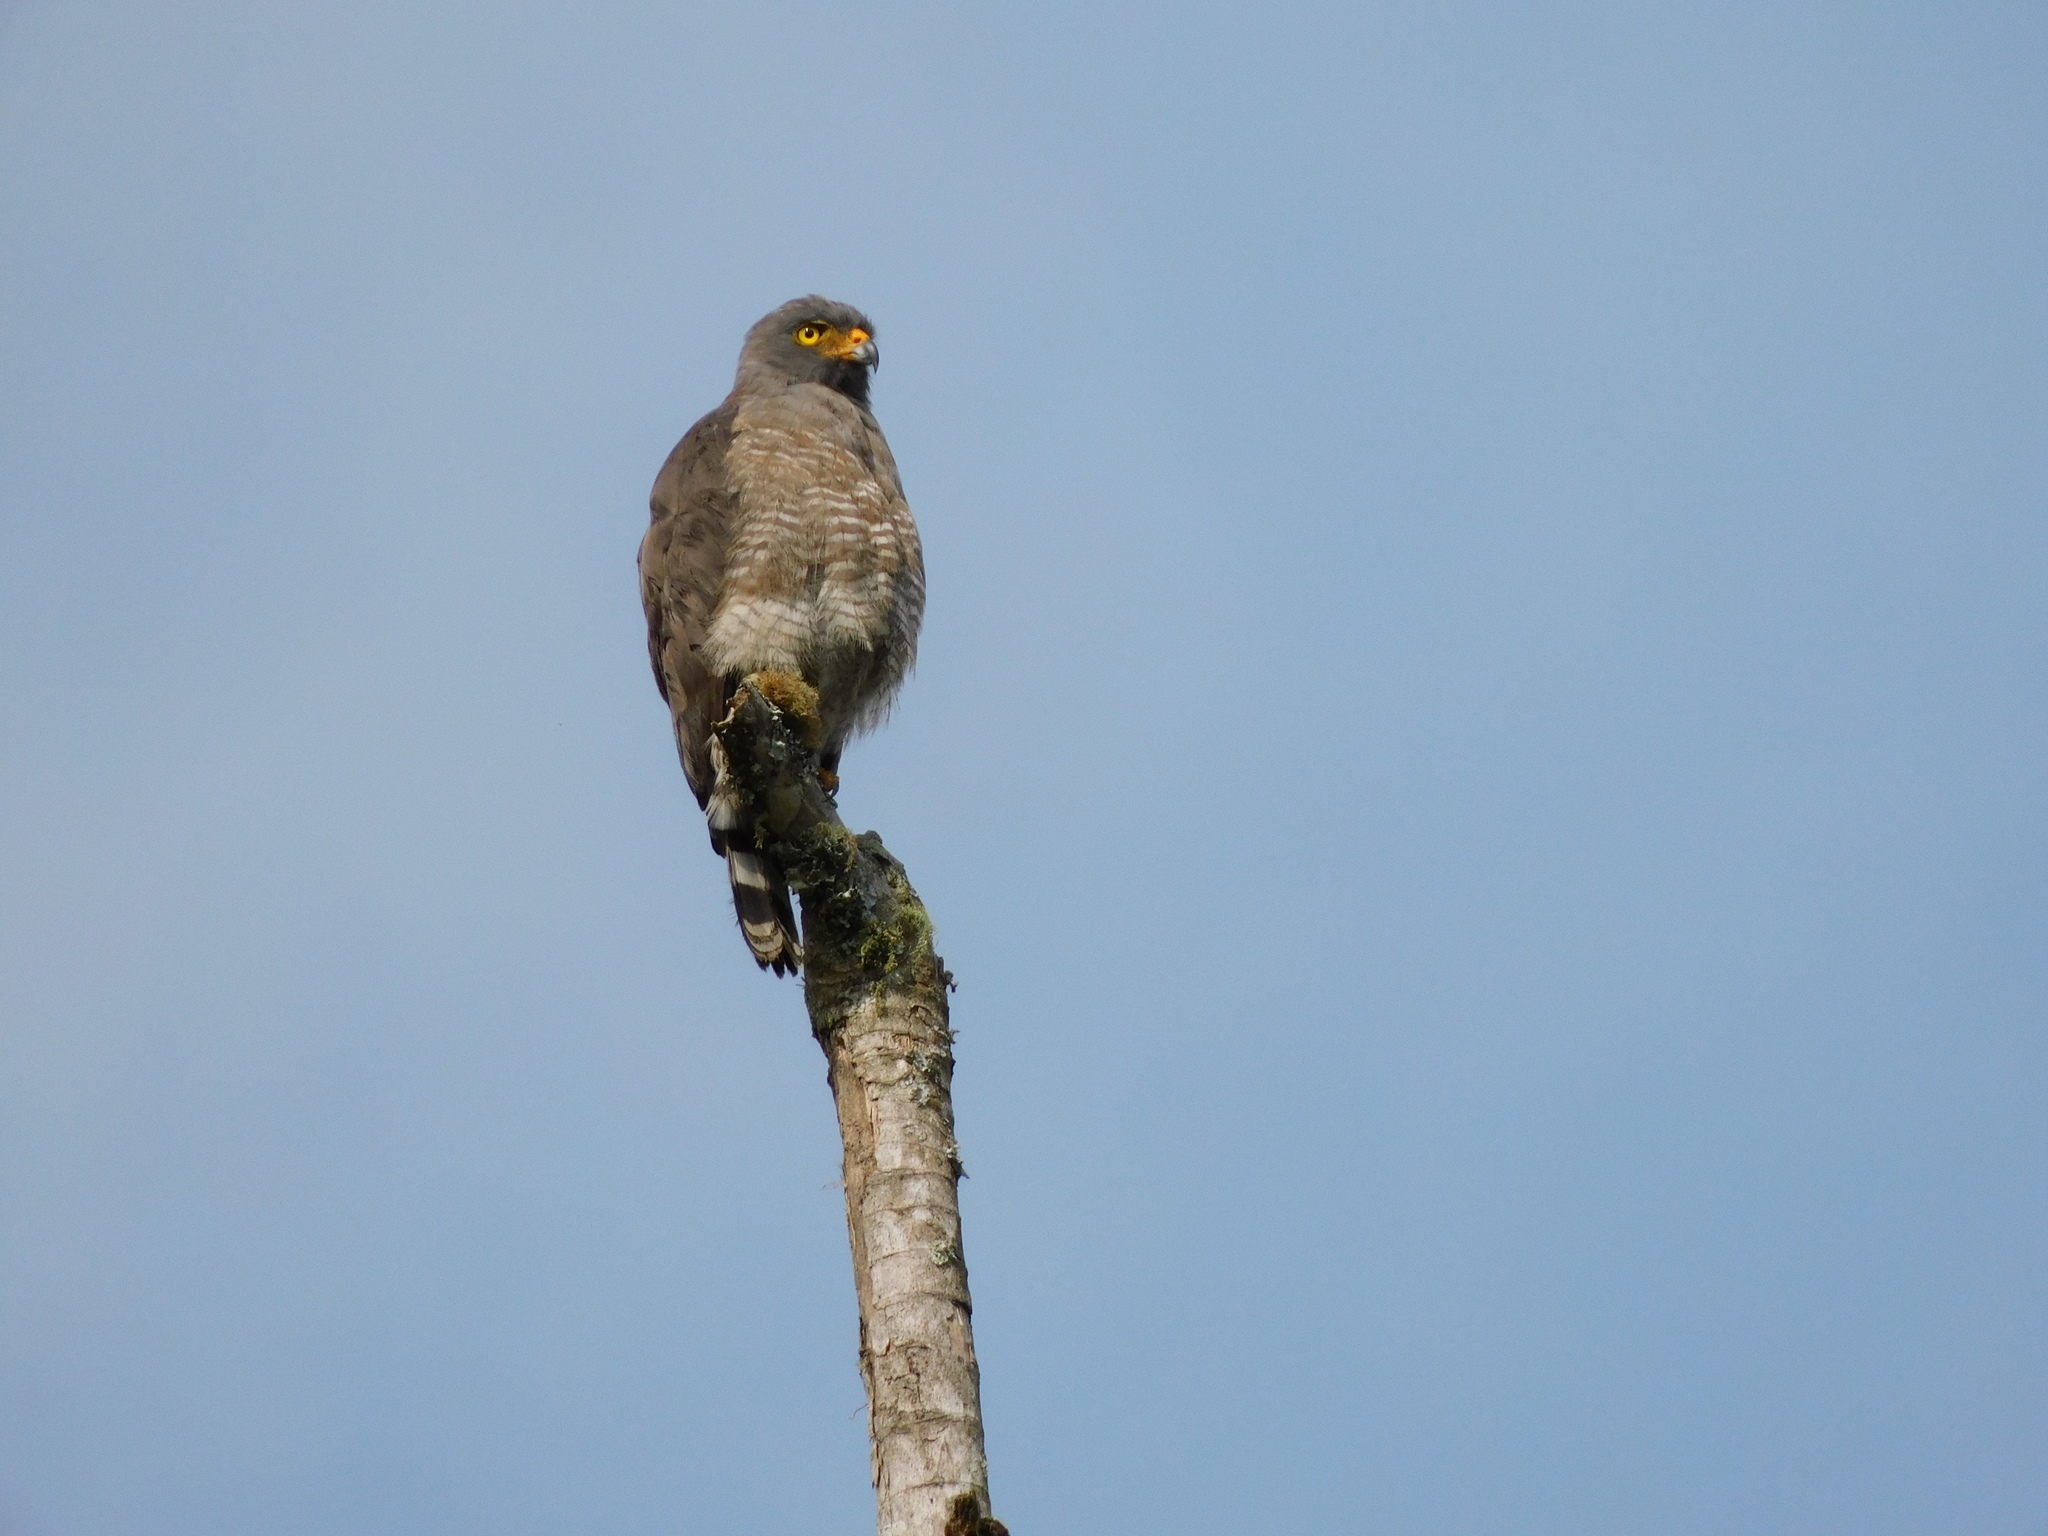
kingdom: Animalia
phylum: Chordata
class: Aves
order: Accipitriformes
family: Accipitridae
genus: Rupornis
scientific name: Rupornis magnirostris
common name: Roadside hawk
